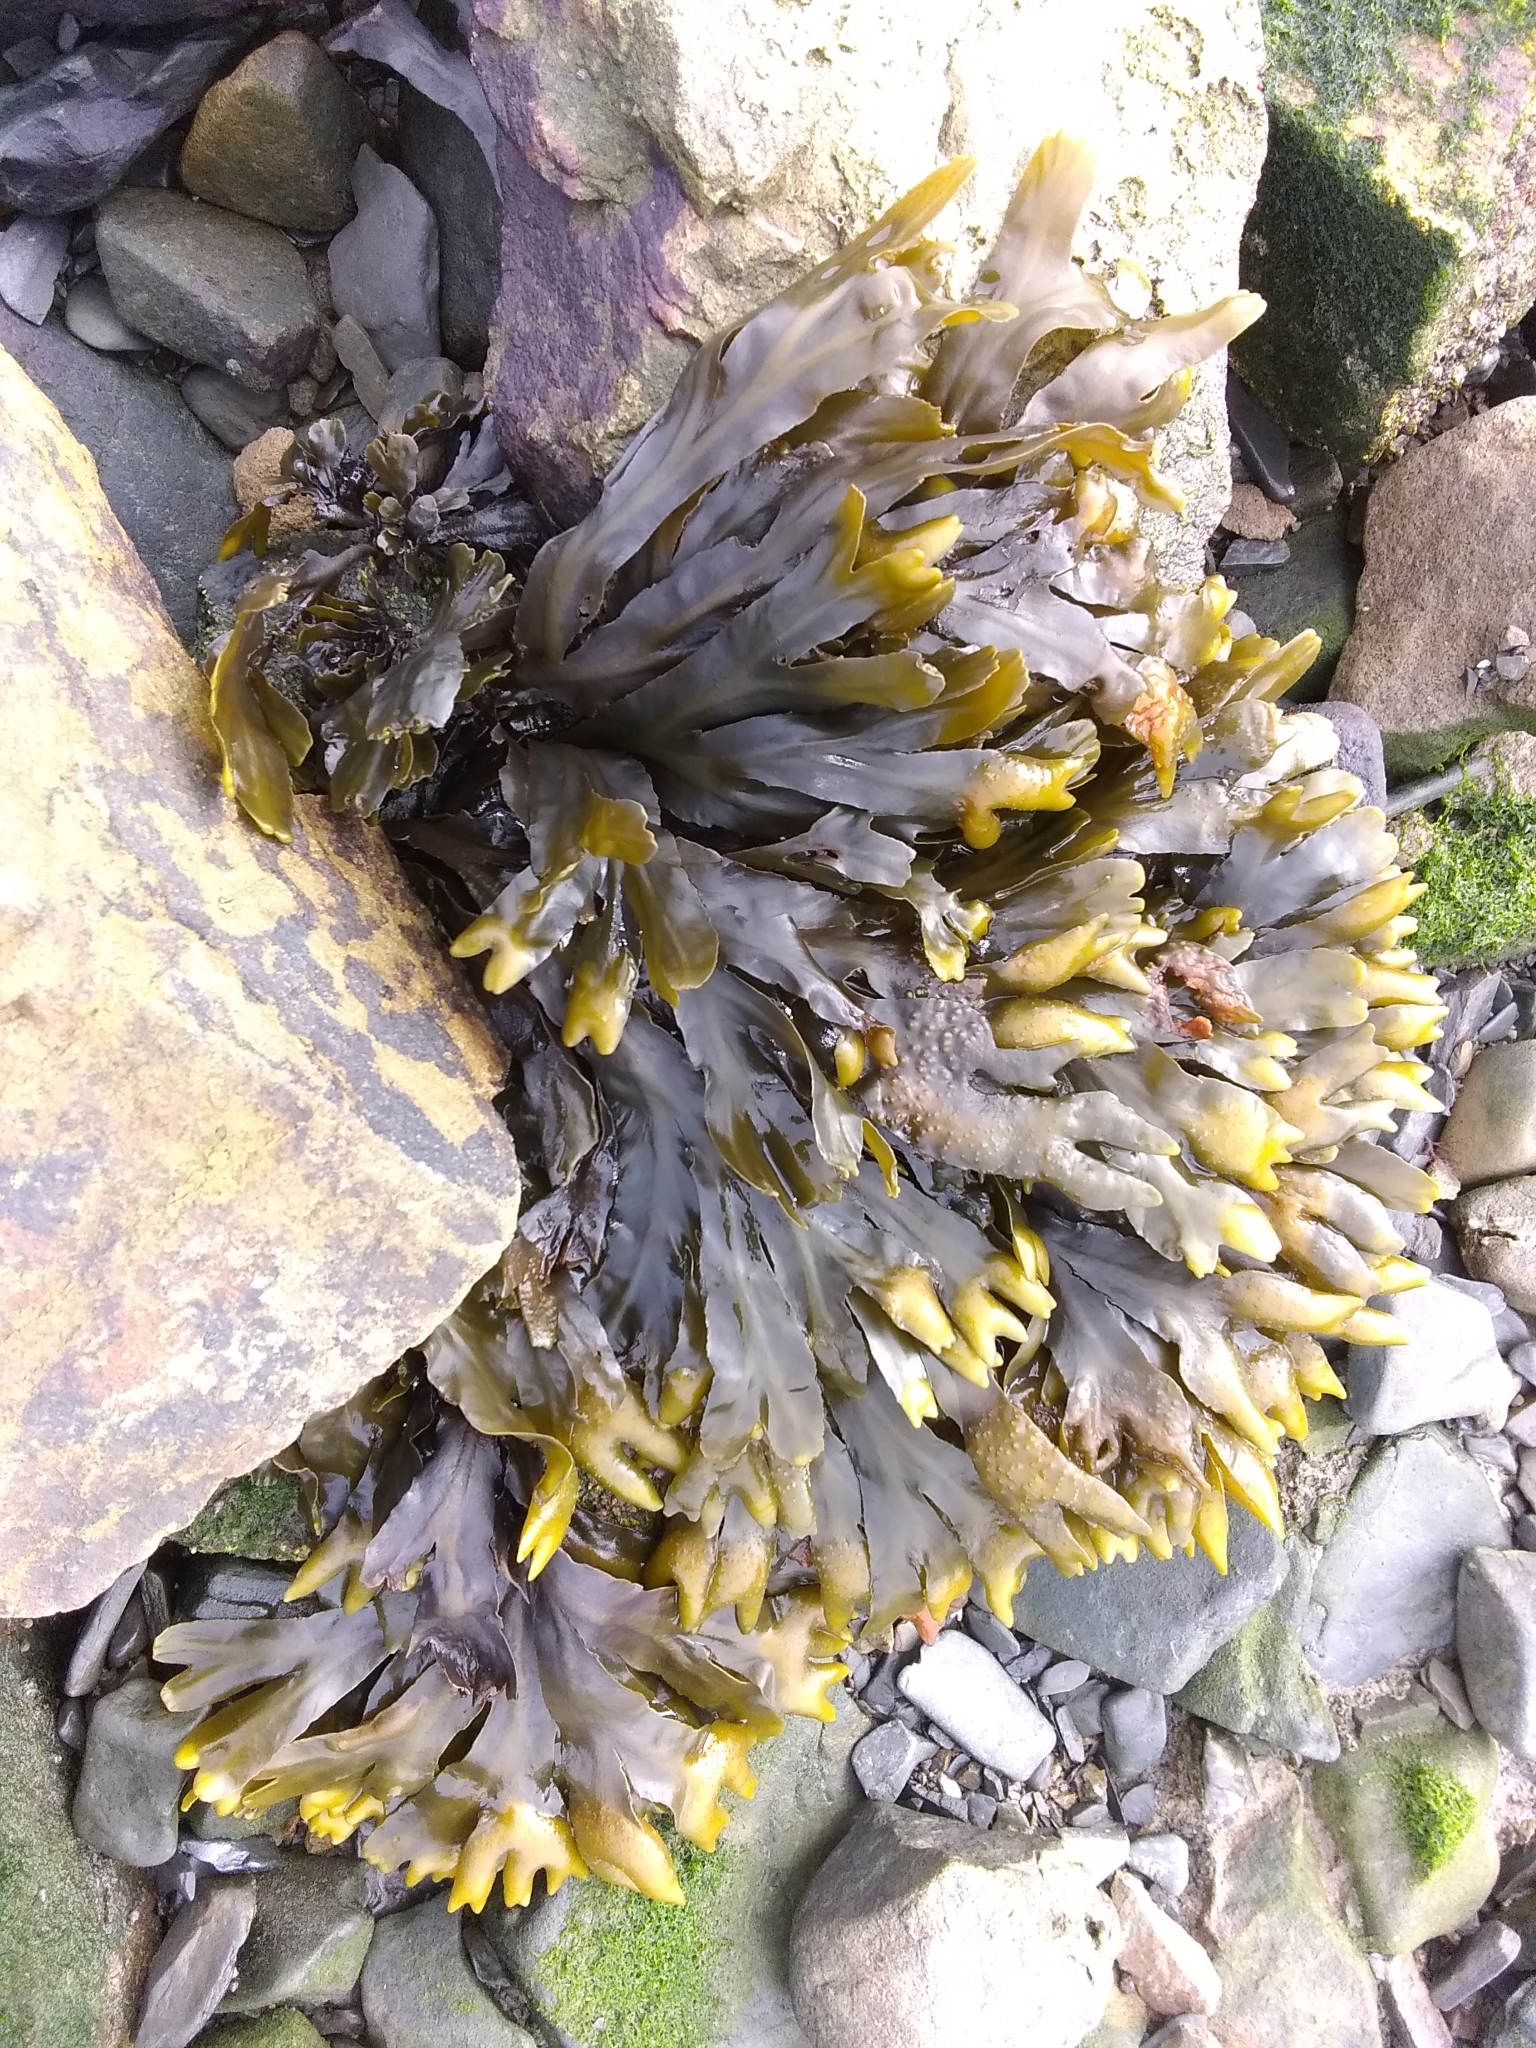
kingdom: Chromista
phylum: Ochrophyta
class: Phaeophyceae
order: Fucales
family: Fucaceae
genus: Fucus
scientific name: Fucus distichus
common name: Rockweed
